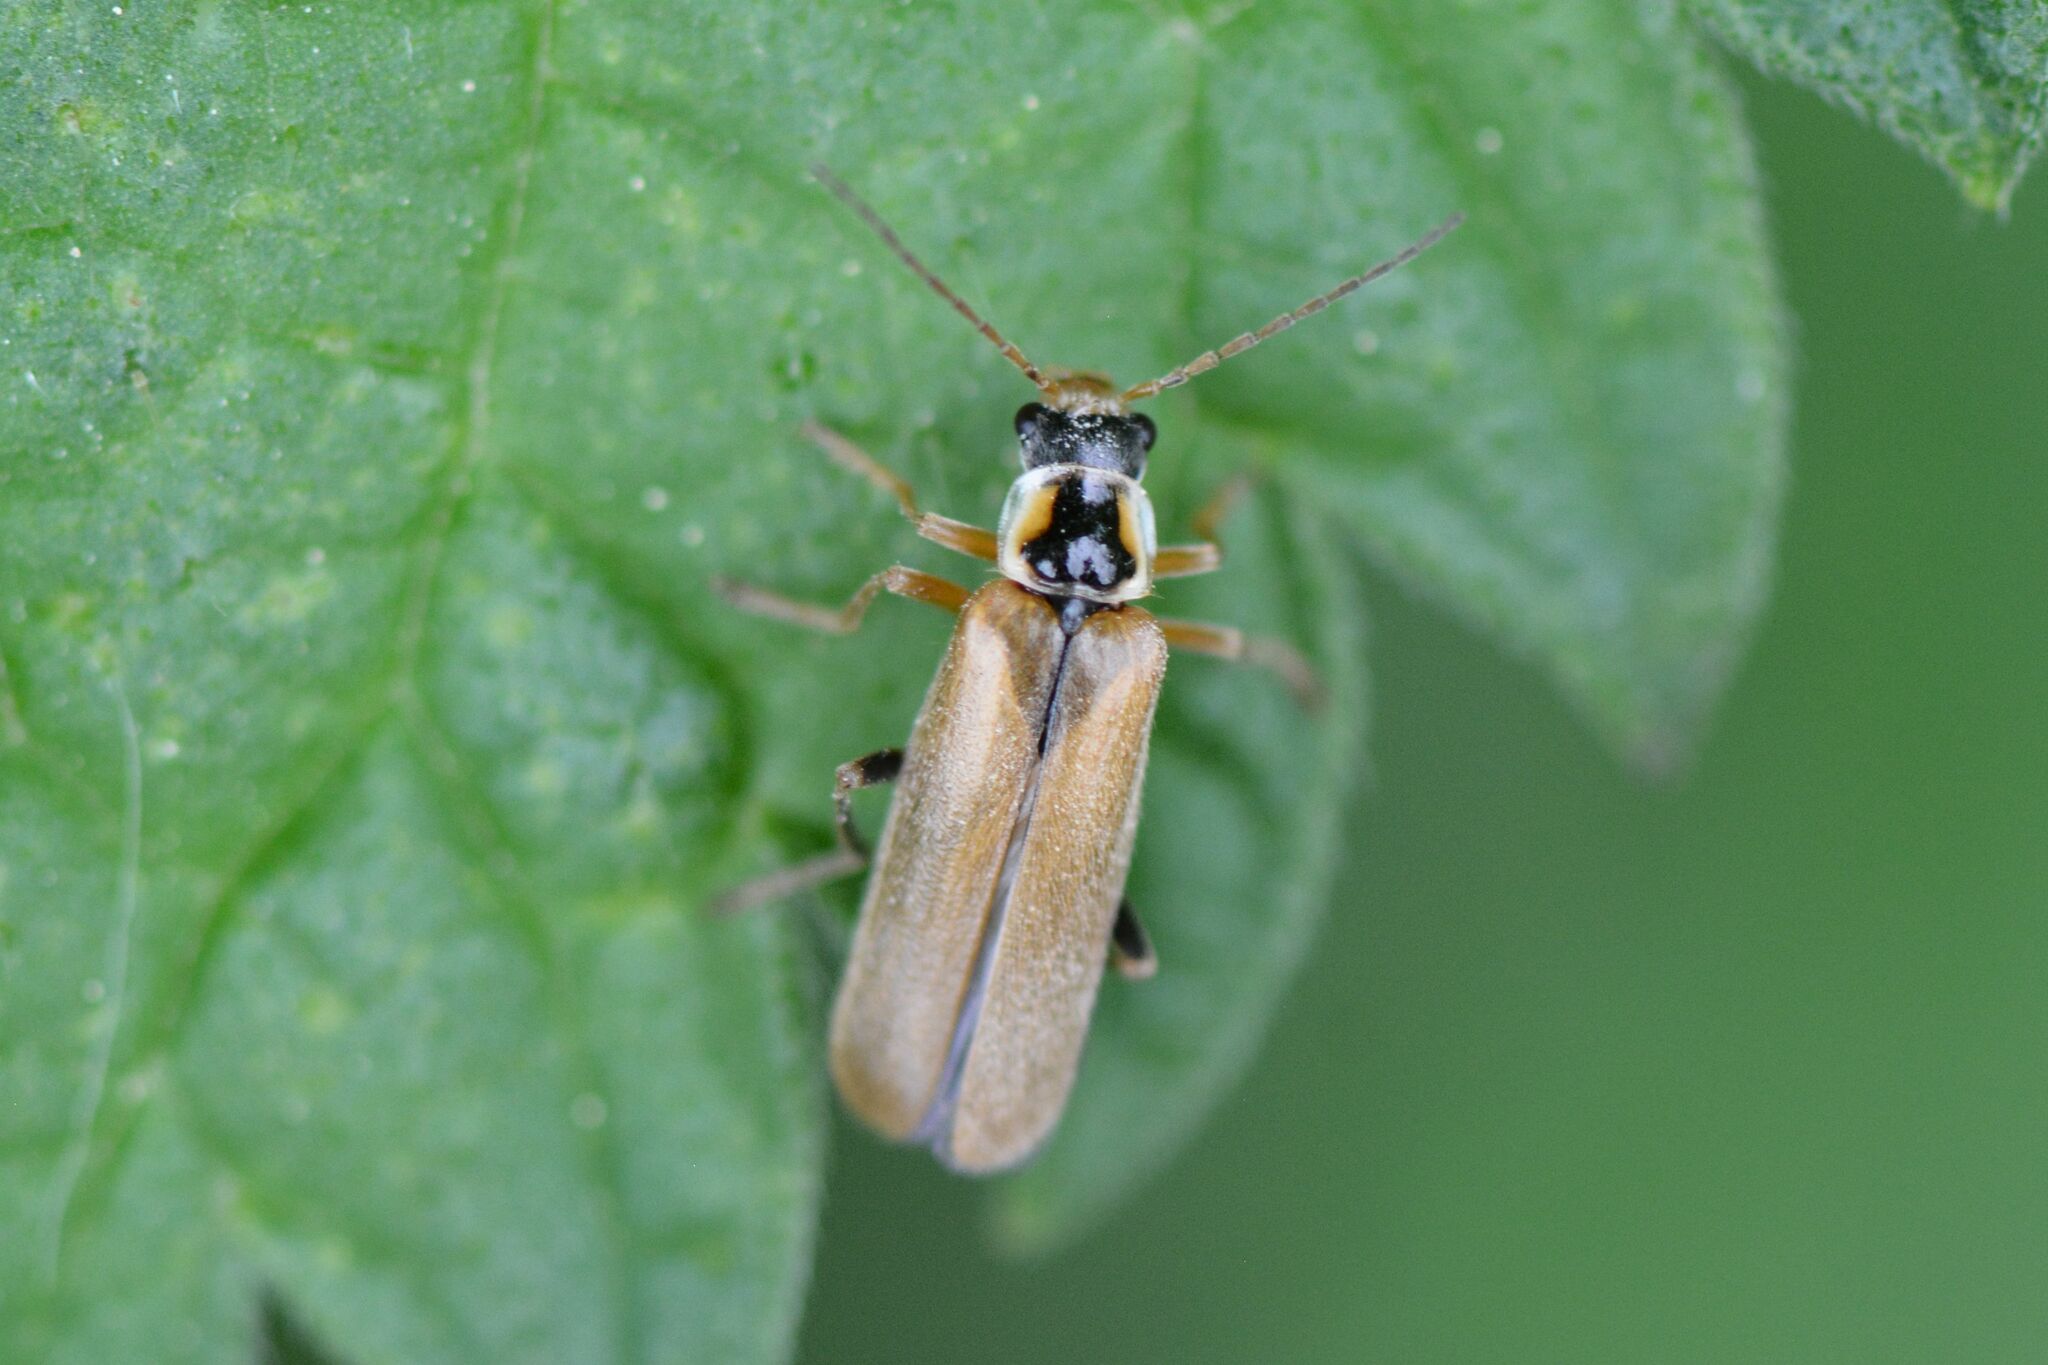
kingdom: Animalia
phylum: Arthropoda
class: Insecta
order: Coleoptera
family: Cantharidae
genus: Cantharis
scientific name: Cantharis decipiens
